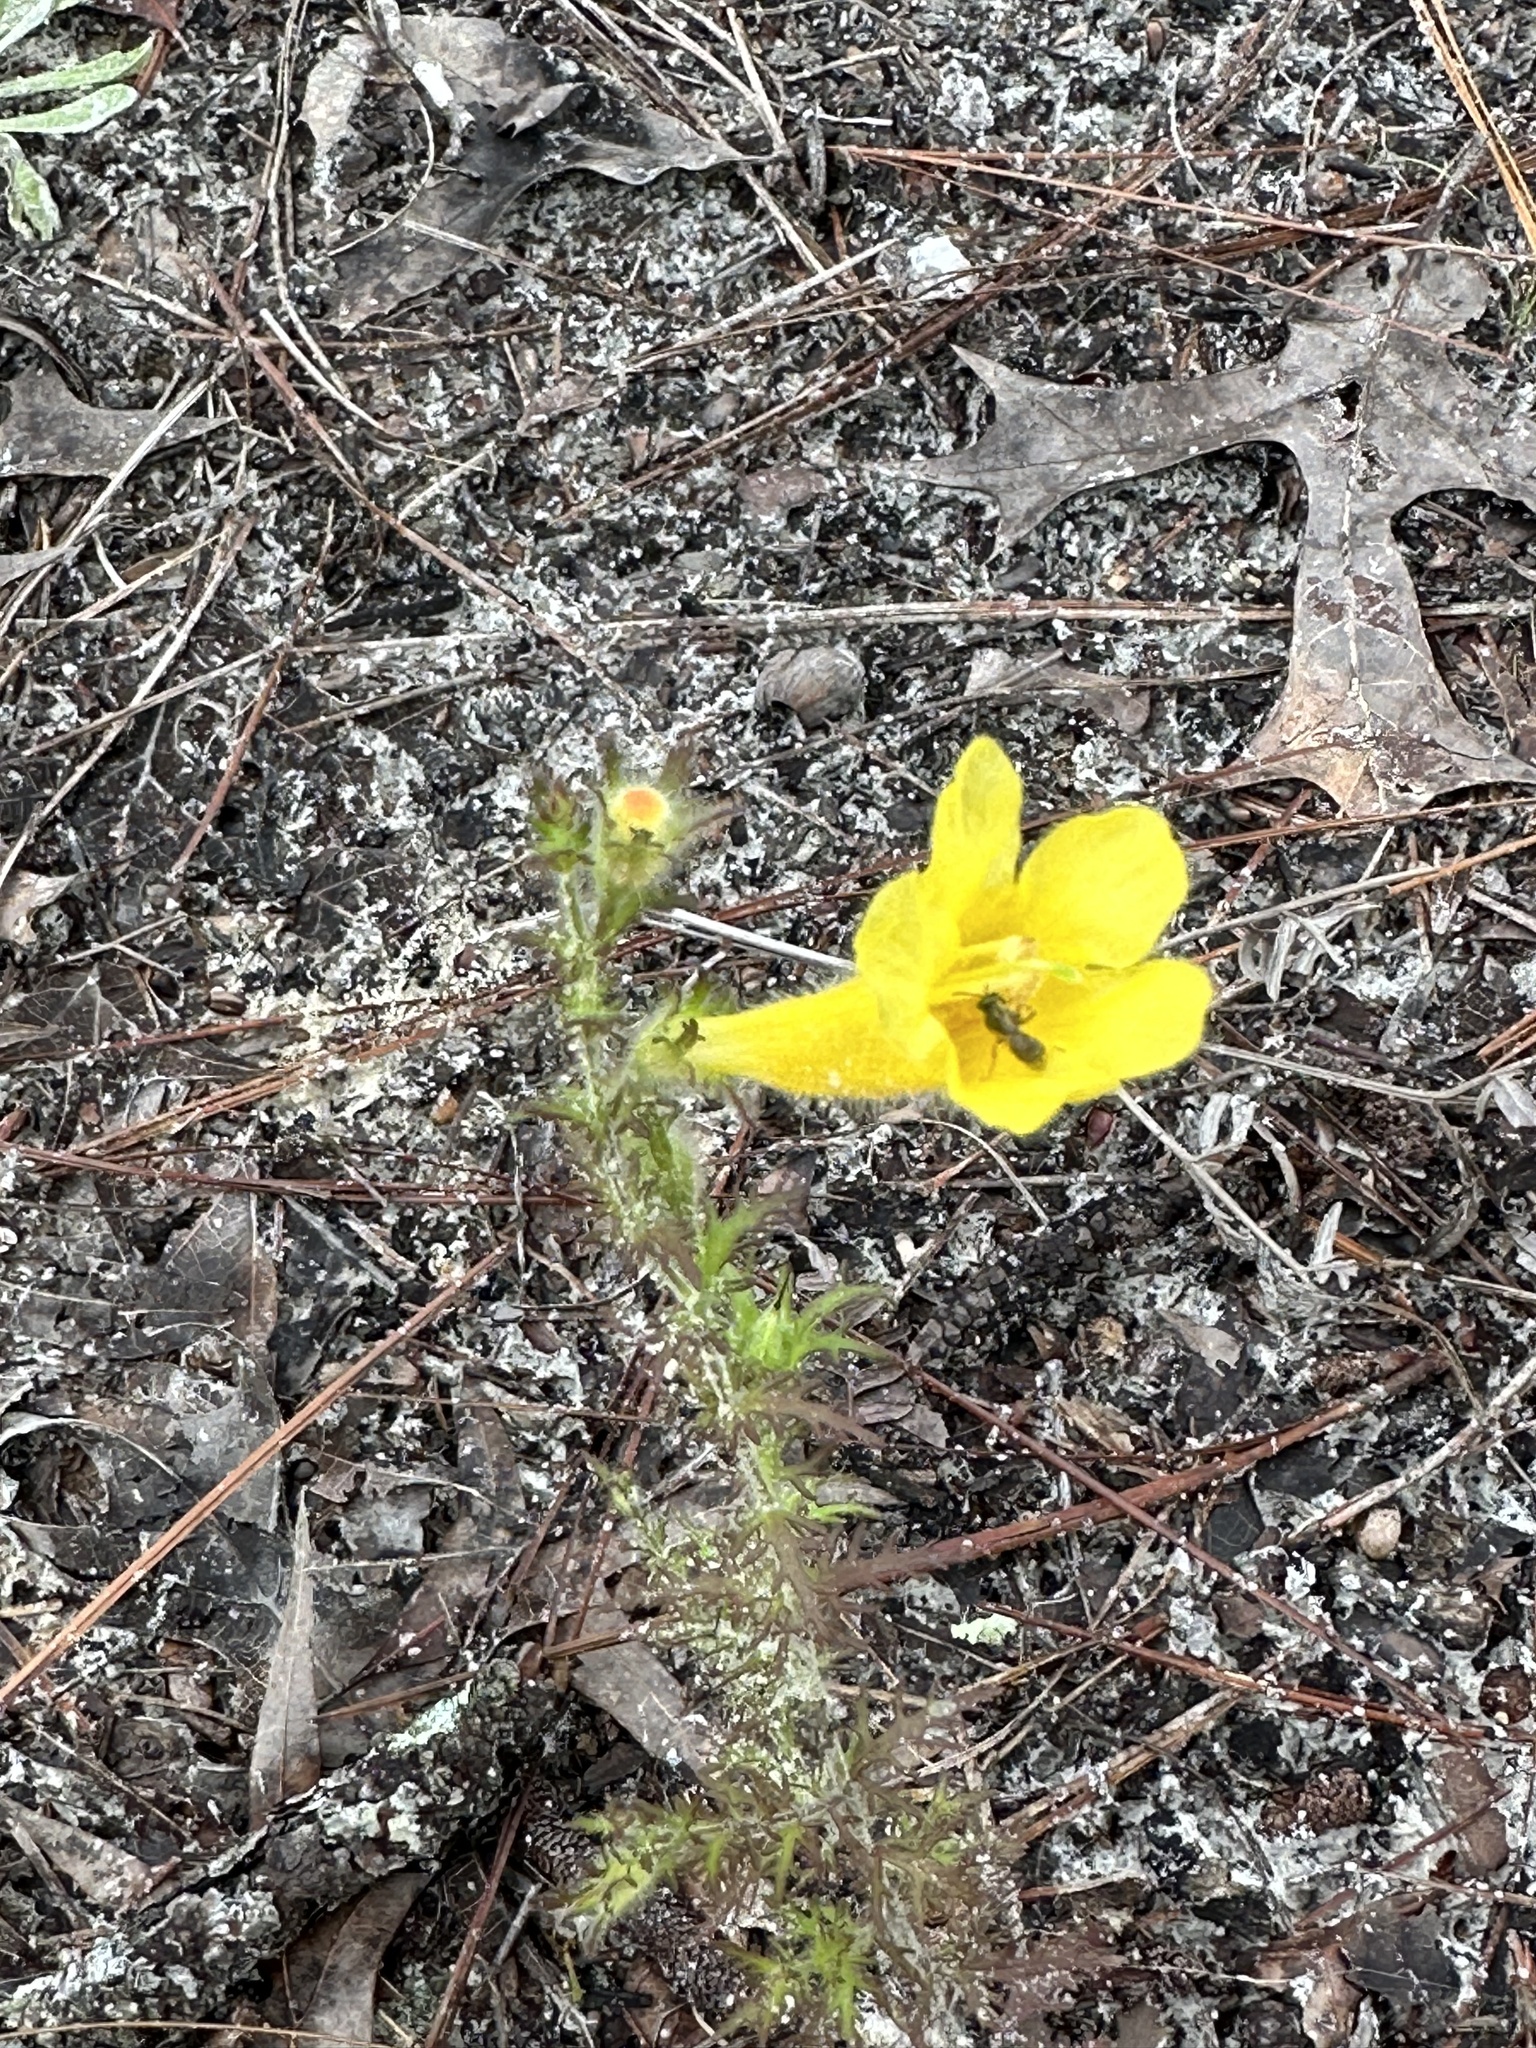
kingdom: Plantae
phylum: Tracheophyta
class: Magnoliopsida
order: Lamiales
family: Orobanchaceae
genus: Aureolaria
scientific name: Aureolaria pectinata
